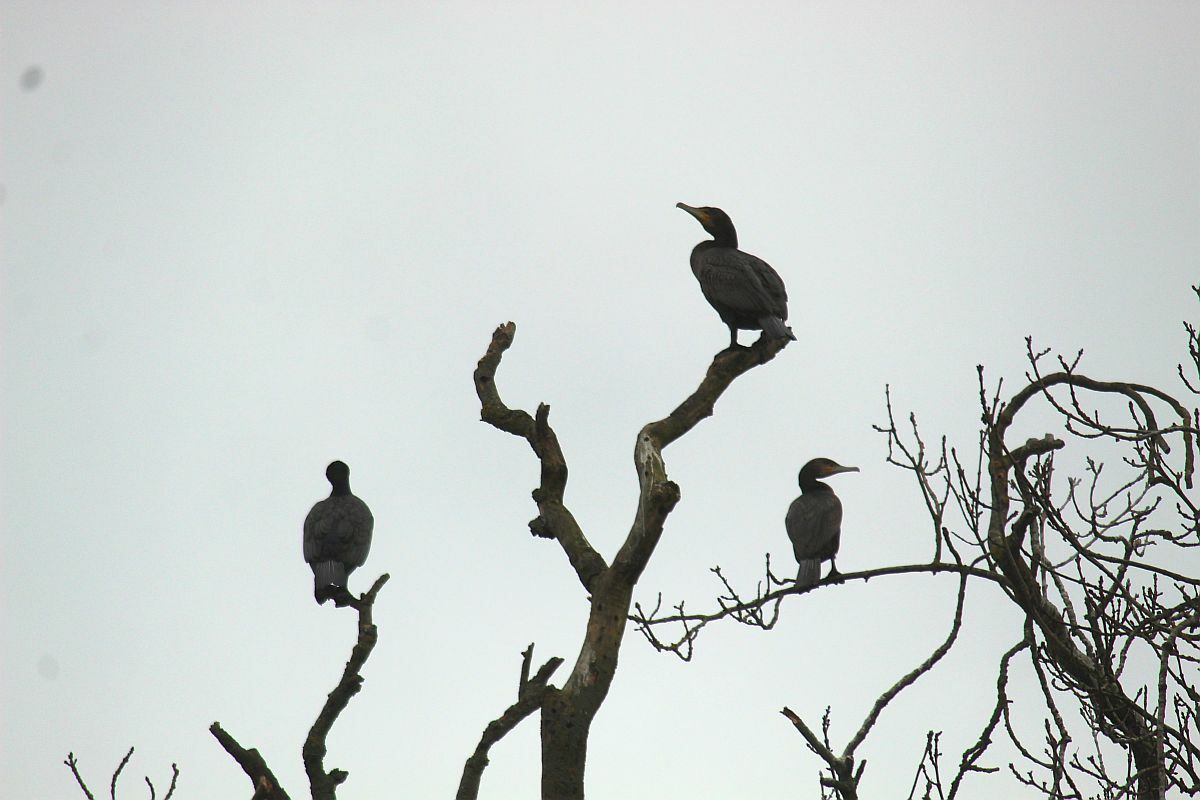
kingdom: Animalia
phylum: Chordata
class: Aves
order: Suliformes
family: Phalacrocoracidae
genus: Phalacrocorax
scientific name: Phalacrocorax carbo
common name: Great cormorant
